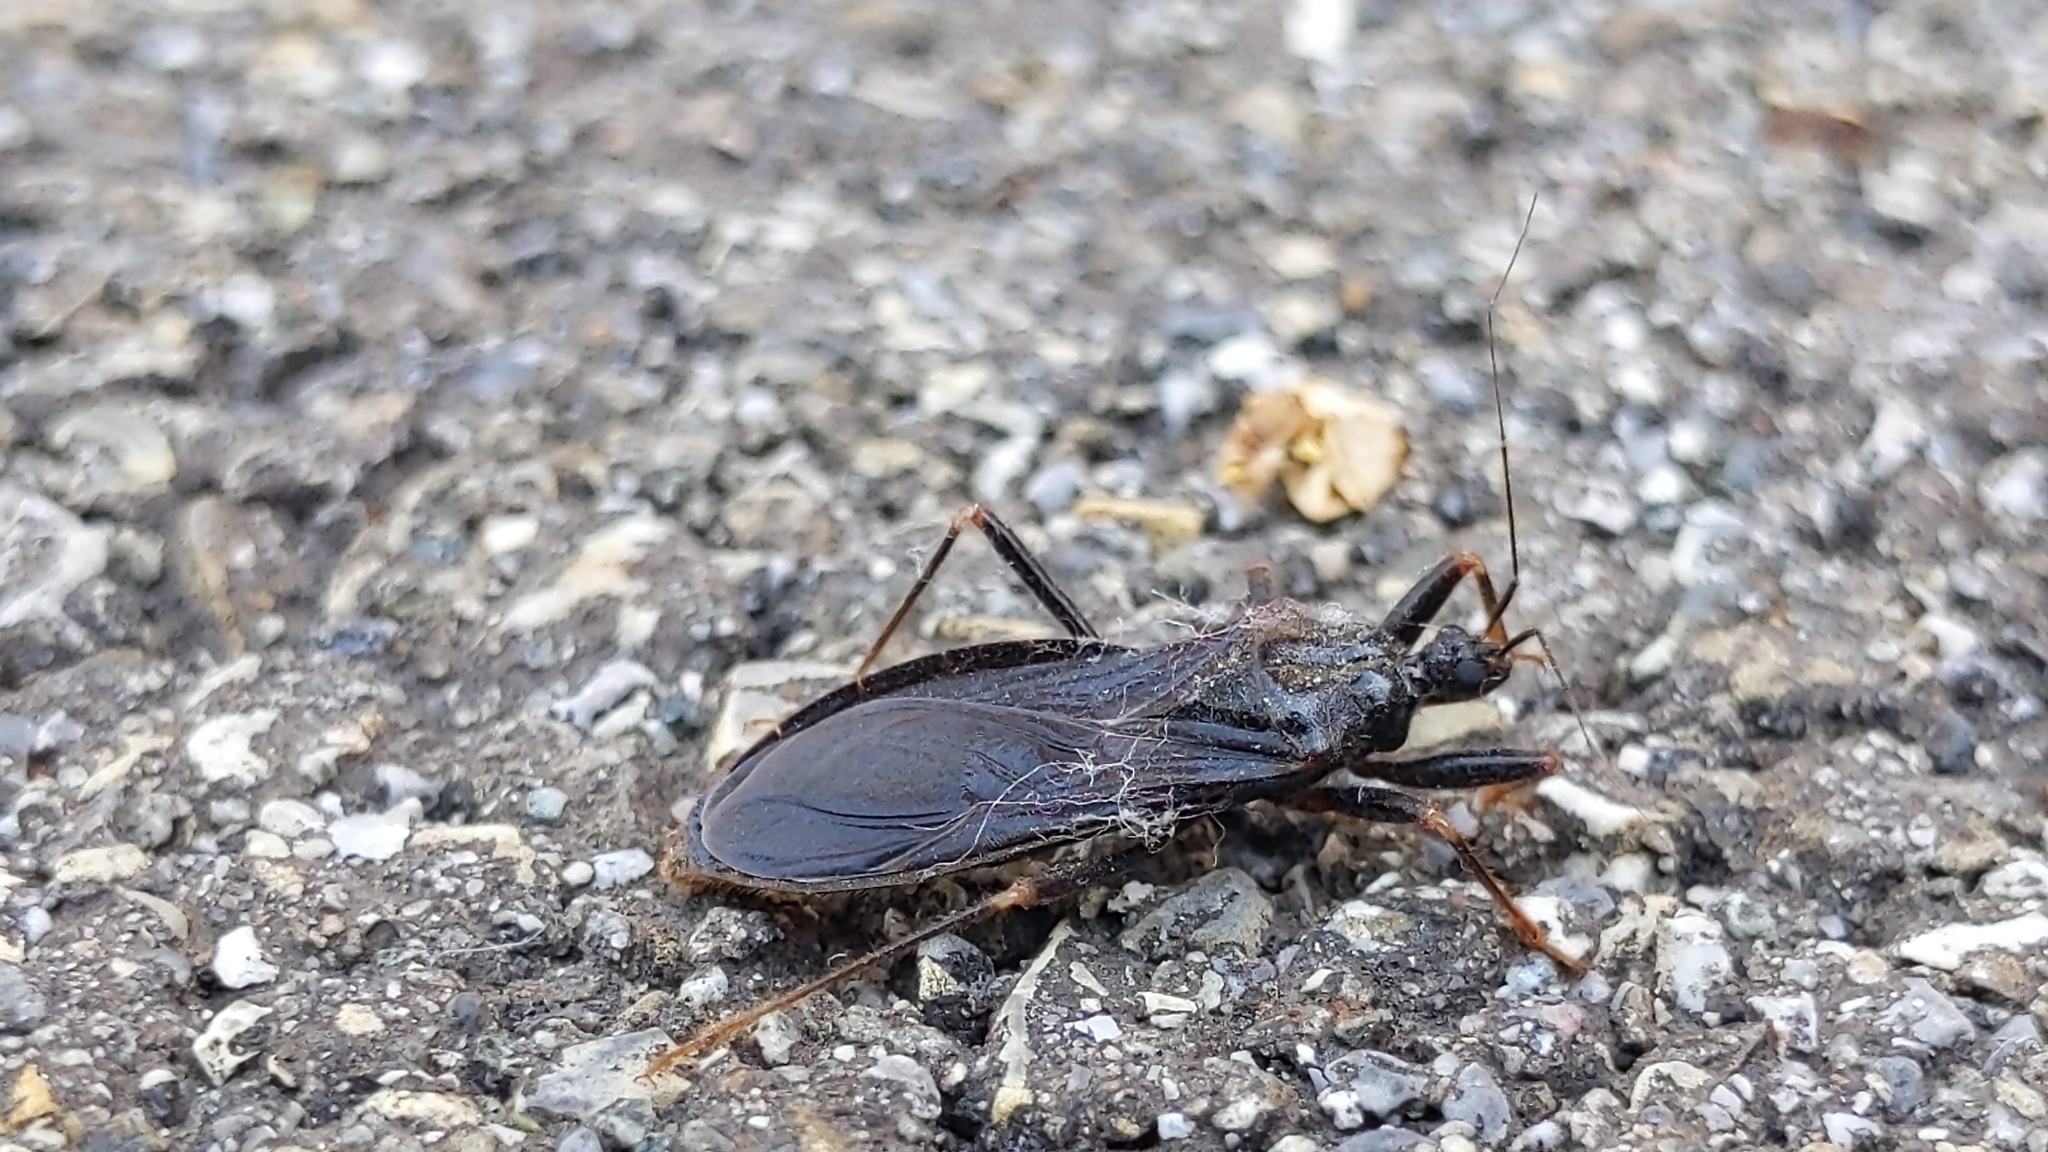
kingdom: Animalia
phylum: Arthropoda
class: Insecta
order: Hemiptera
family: Reduviidae
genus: Reduvius
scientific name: Reduvius personatus
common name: Masked hunter
